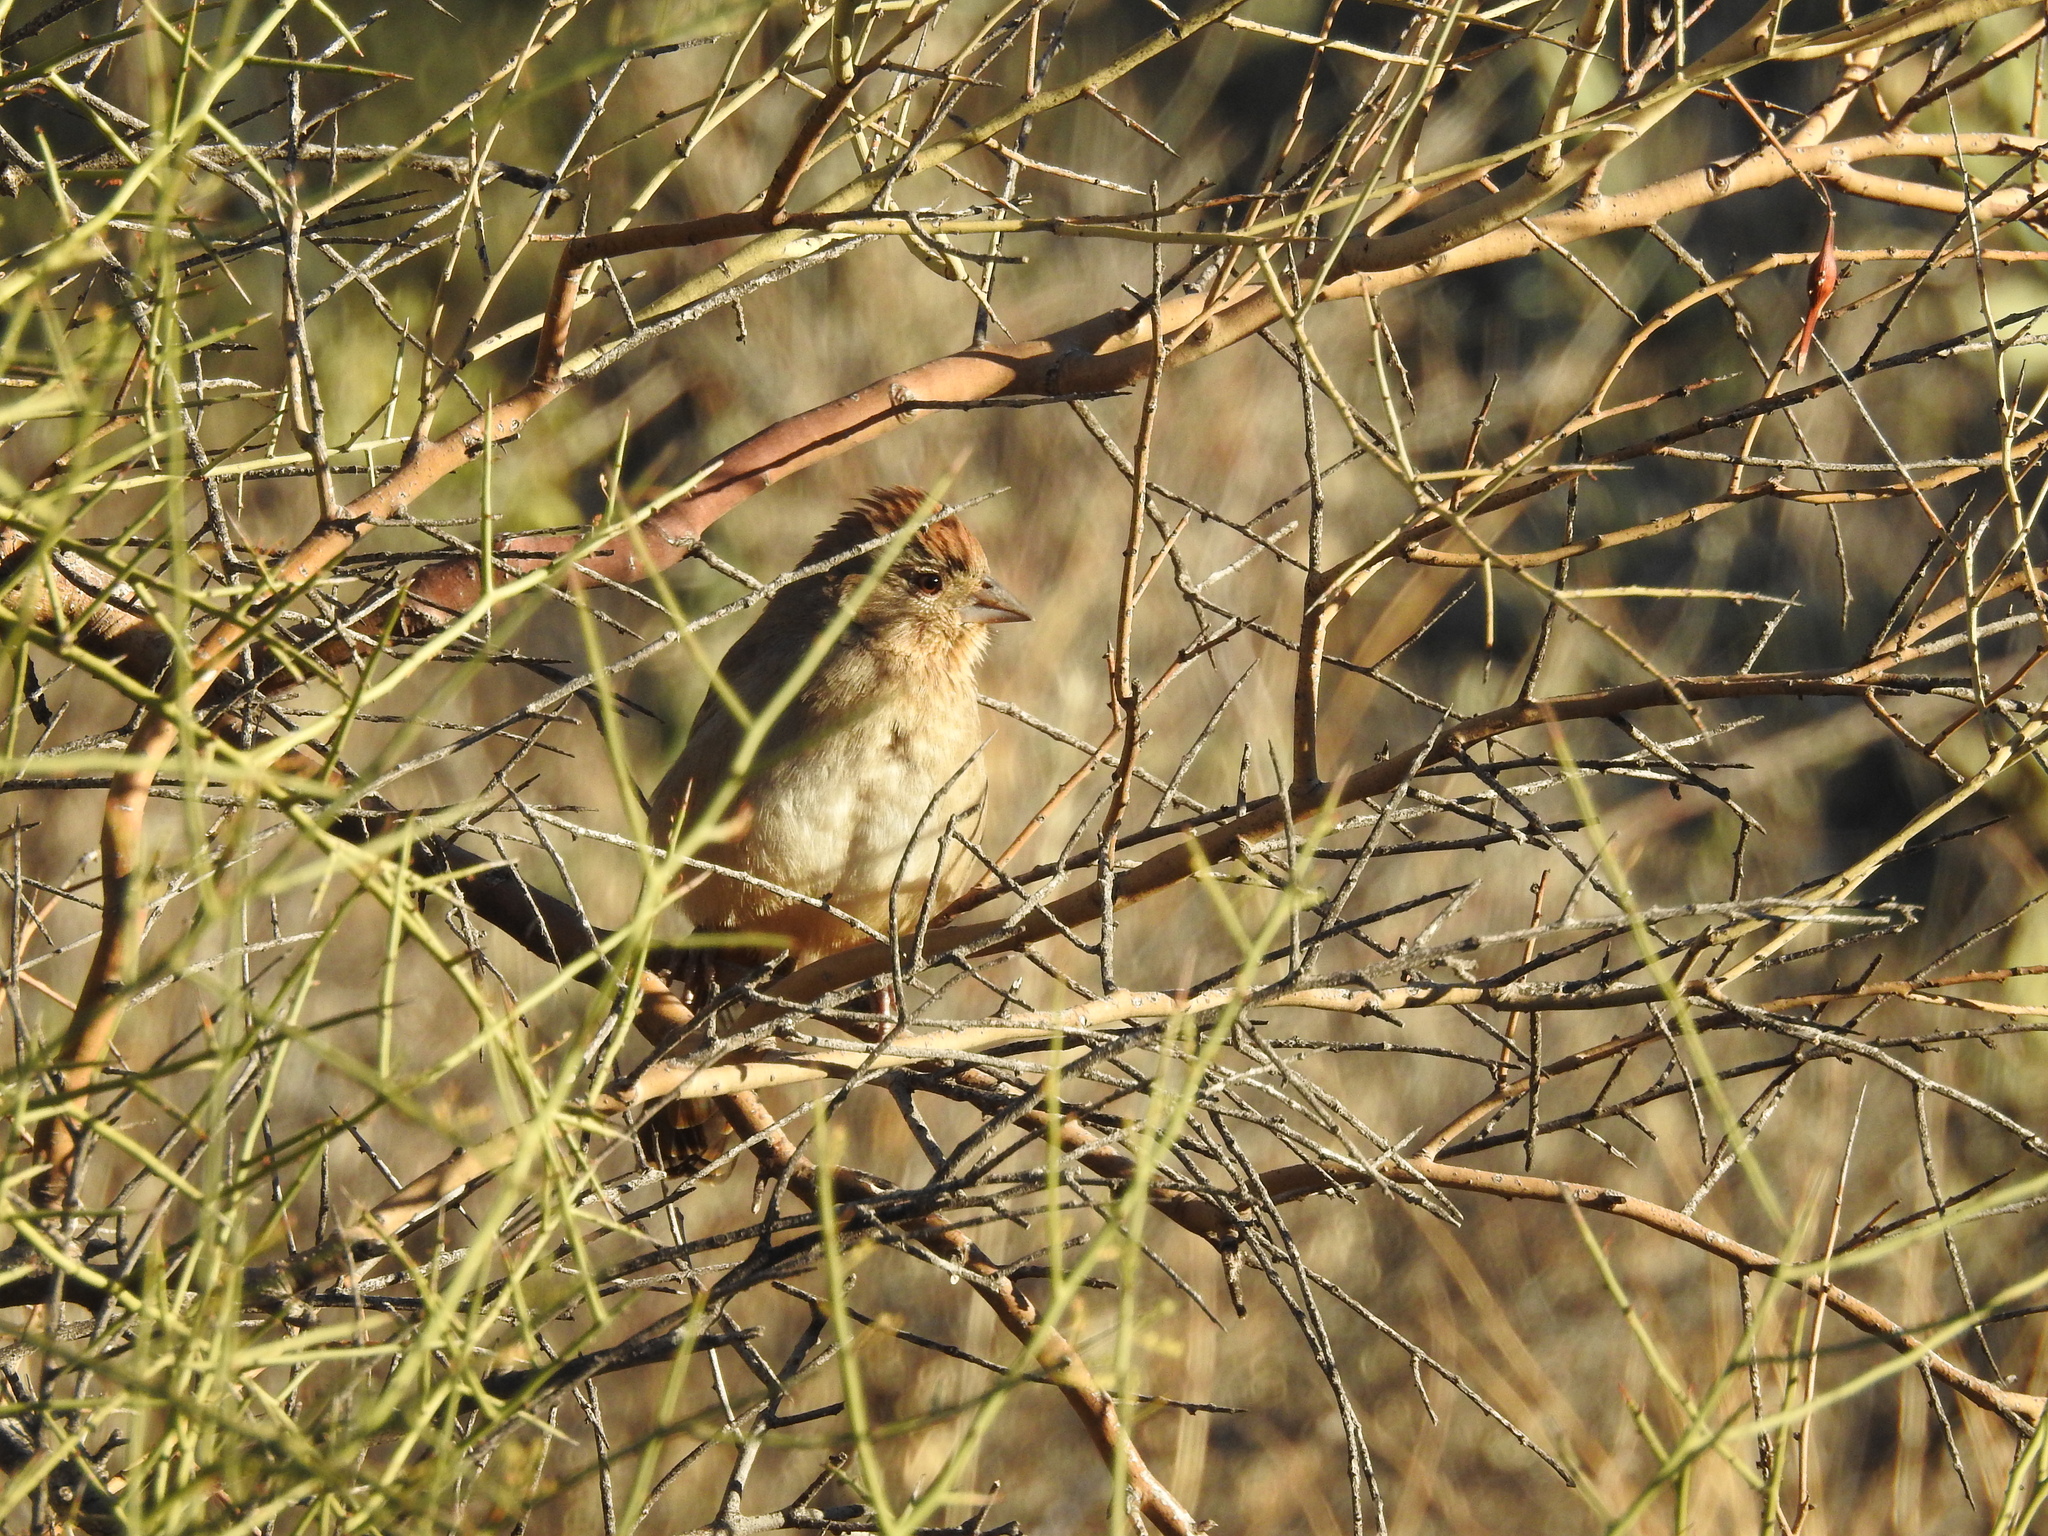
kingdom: Animalia
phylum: Chordata
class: Aves
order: Passeriformes
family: Passerellidae
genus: Melozone
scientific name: Melozone fusca
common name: Canyon towhee
